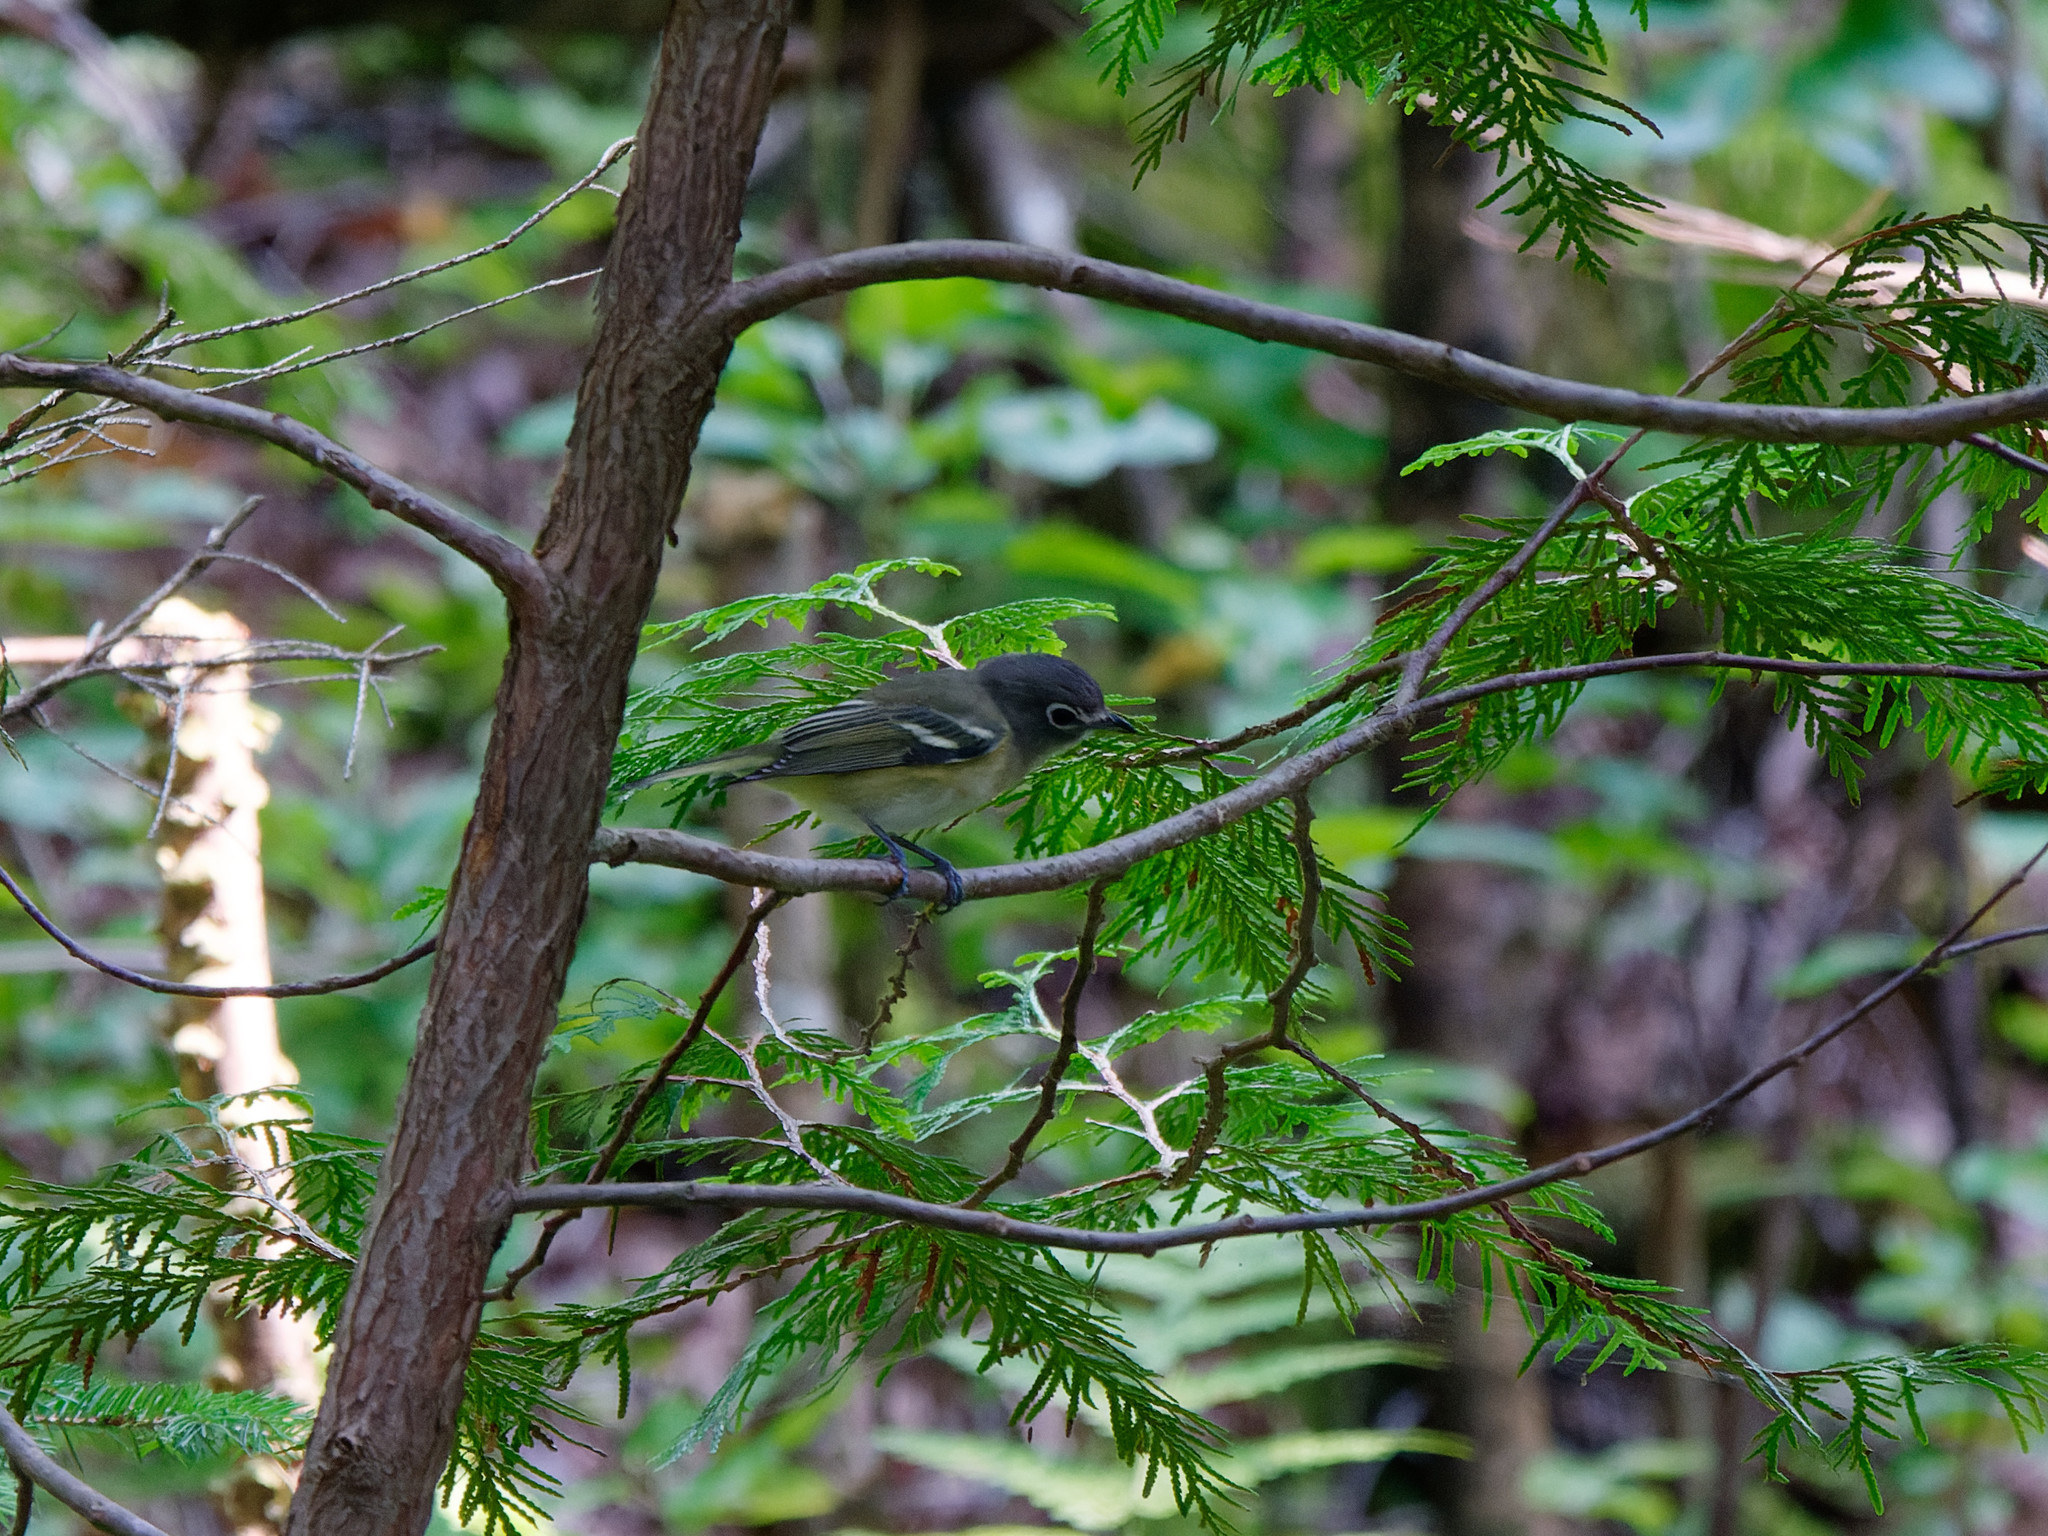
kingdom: Animalia
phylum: Chordata
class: Aves
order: Passeriformes
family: Vireonidae
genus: Vireo
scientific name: Vireo solitarius
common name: Blue-headed vireo
